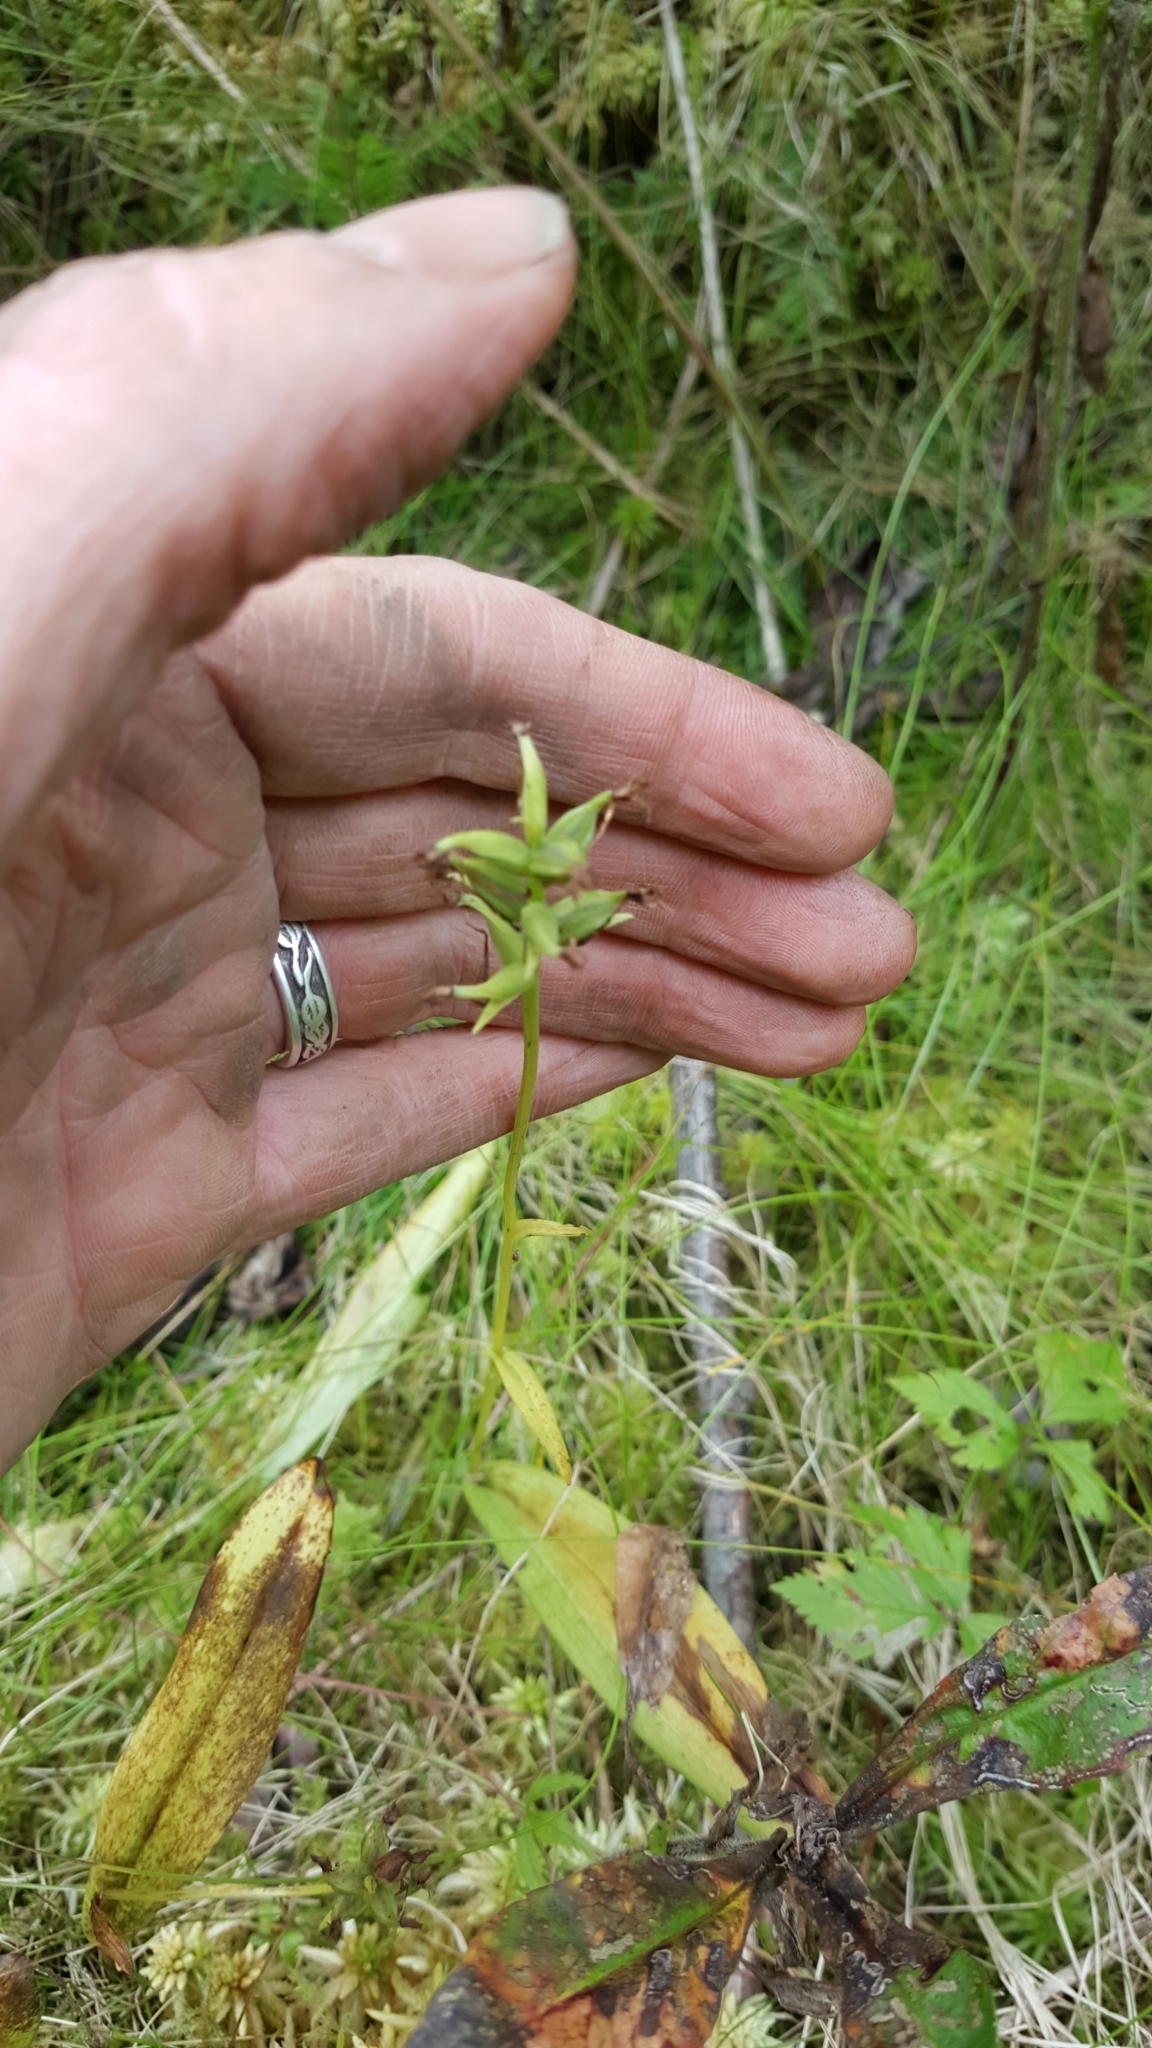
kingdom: Plantae
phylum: Tracheophyta
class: Liliopsida
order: Asparagales
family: Orchidaceae
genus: Platanthera
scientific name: Platanthera clavellata
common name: Club-spur orchid
